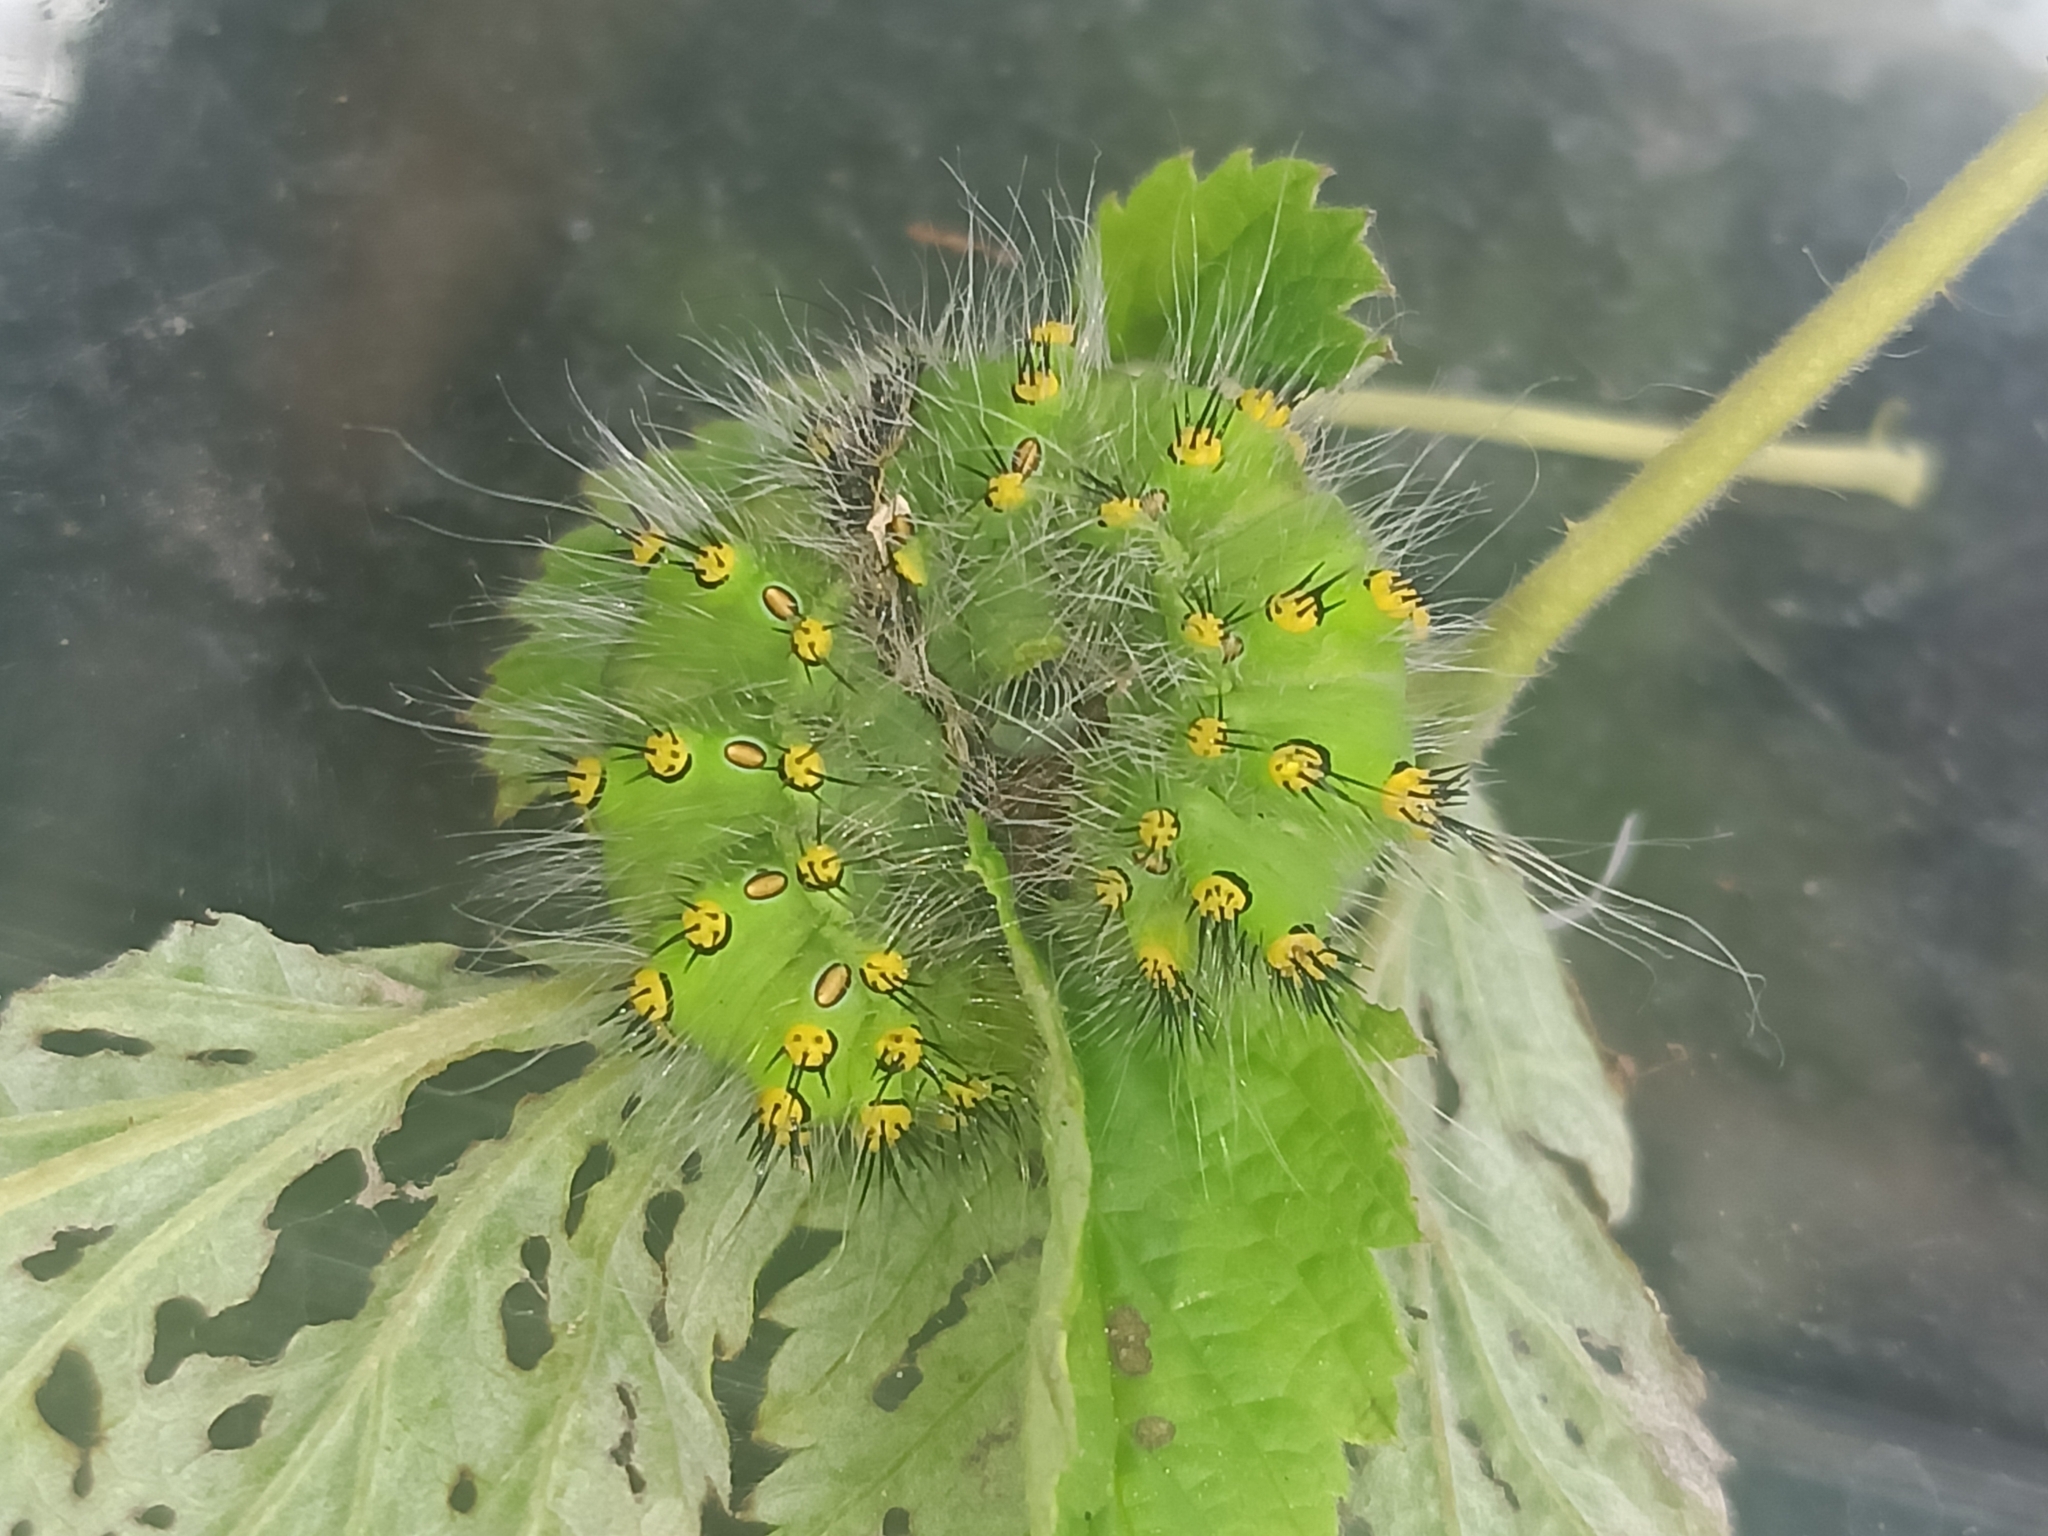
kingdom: Animalia
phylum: Arthropoda
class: Insecta
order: Lepidoptera
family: Saturniidae
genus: Saturnia
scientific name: Saturnia pavonia
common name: Emperor moth
